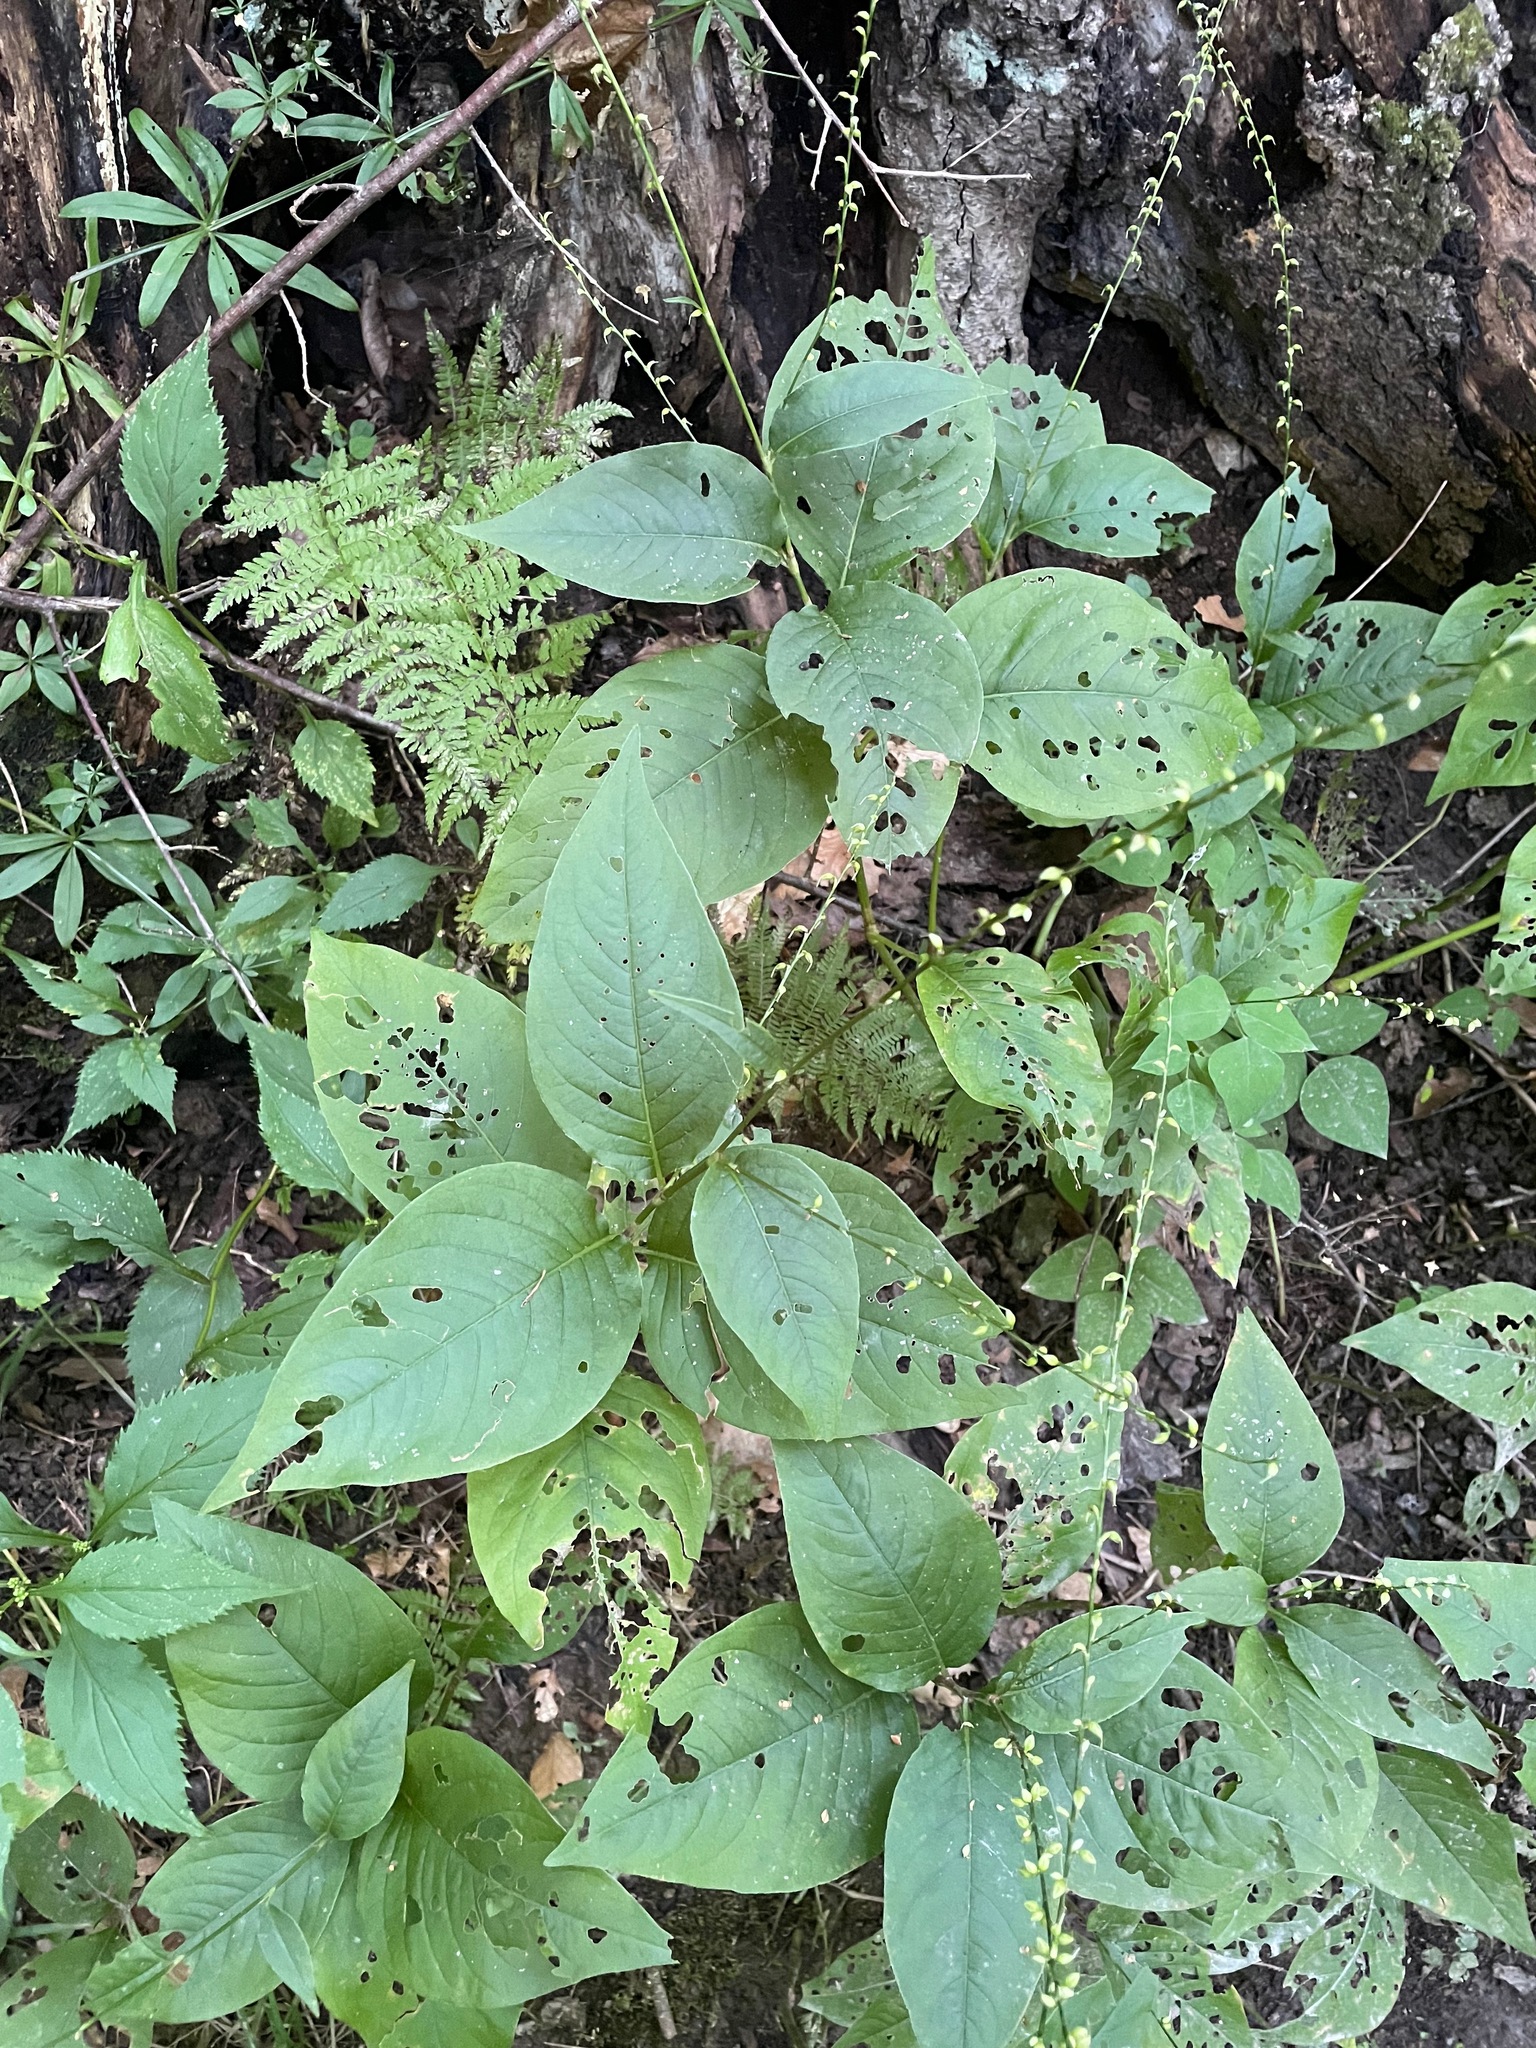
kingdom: Plantae
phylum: Tracheophyta
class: Magnoliopsida
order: Caryophyllales
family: Polygonaceae
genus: Persicaria
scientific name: Persicaria virginiana
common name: Jumpseed
